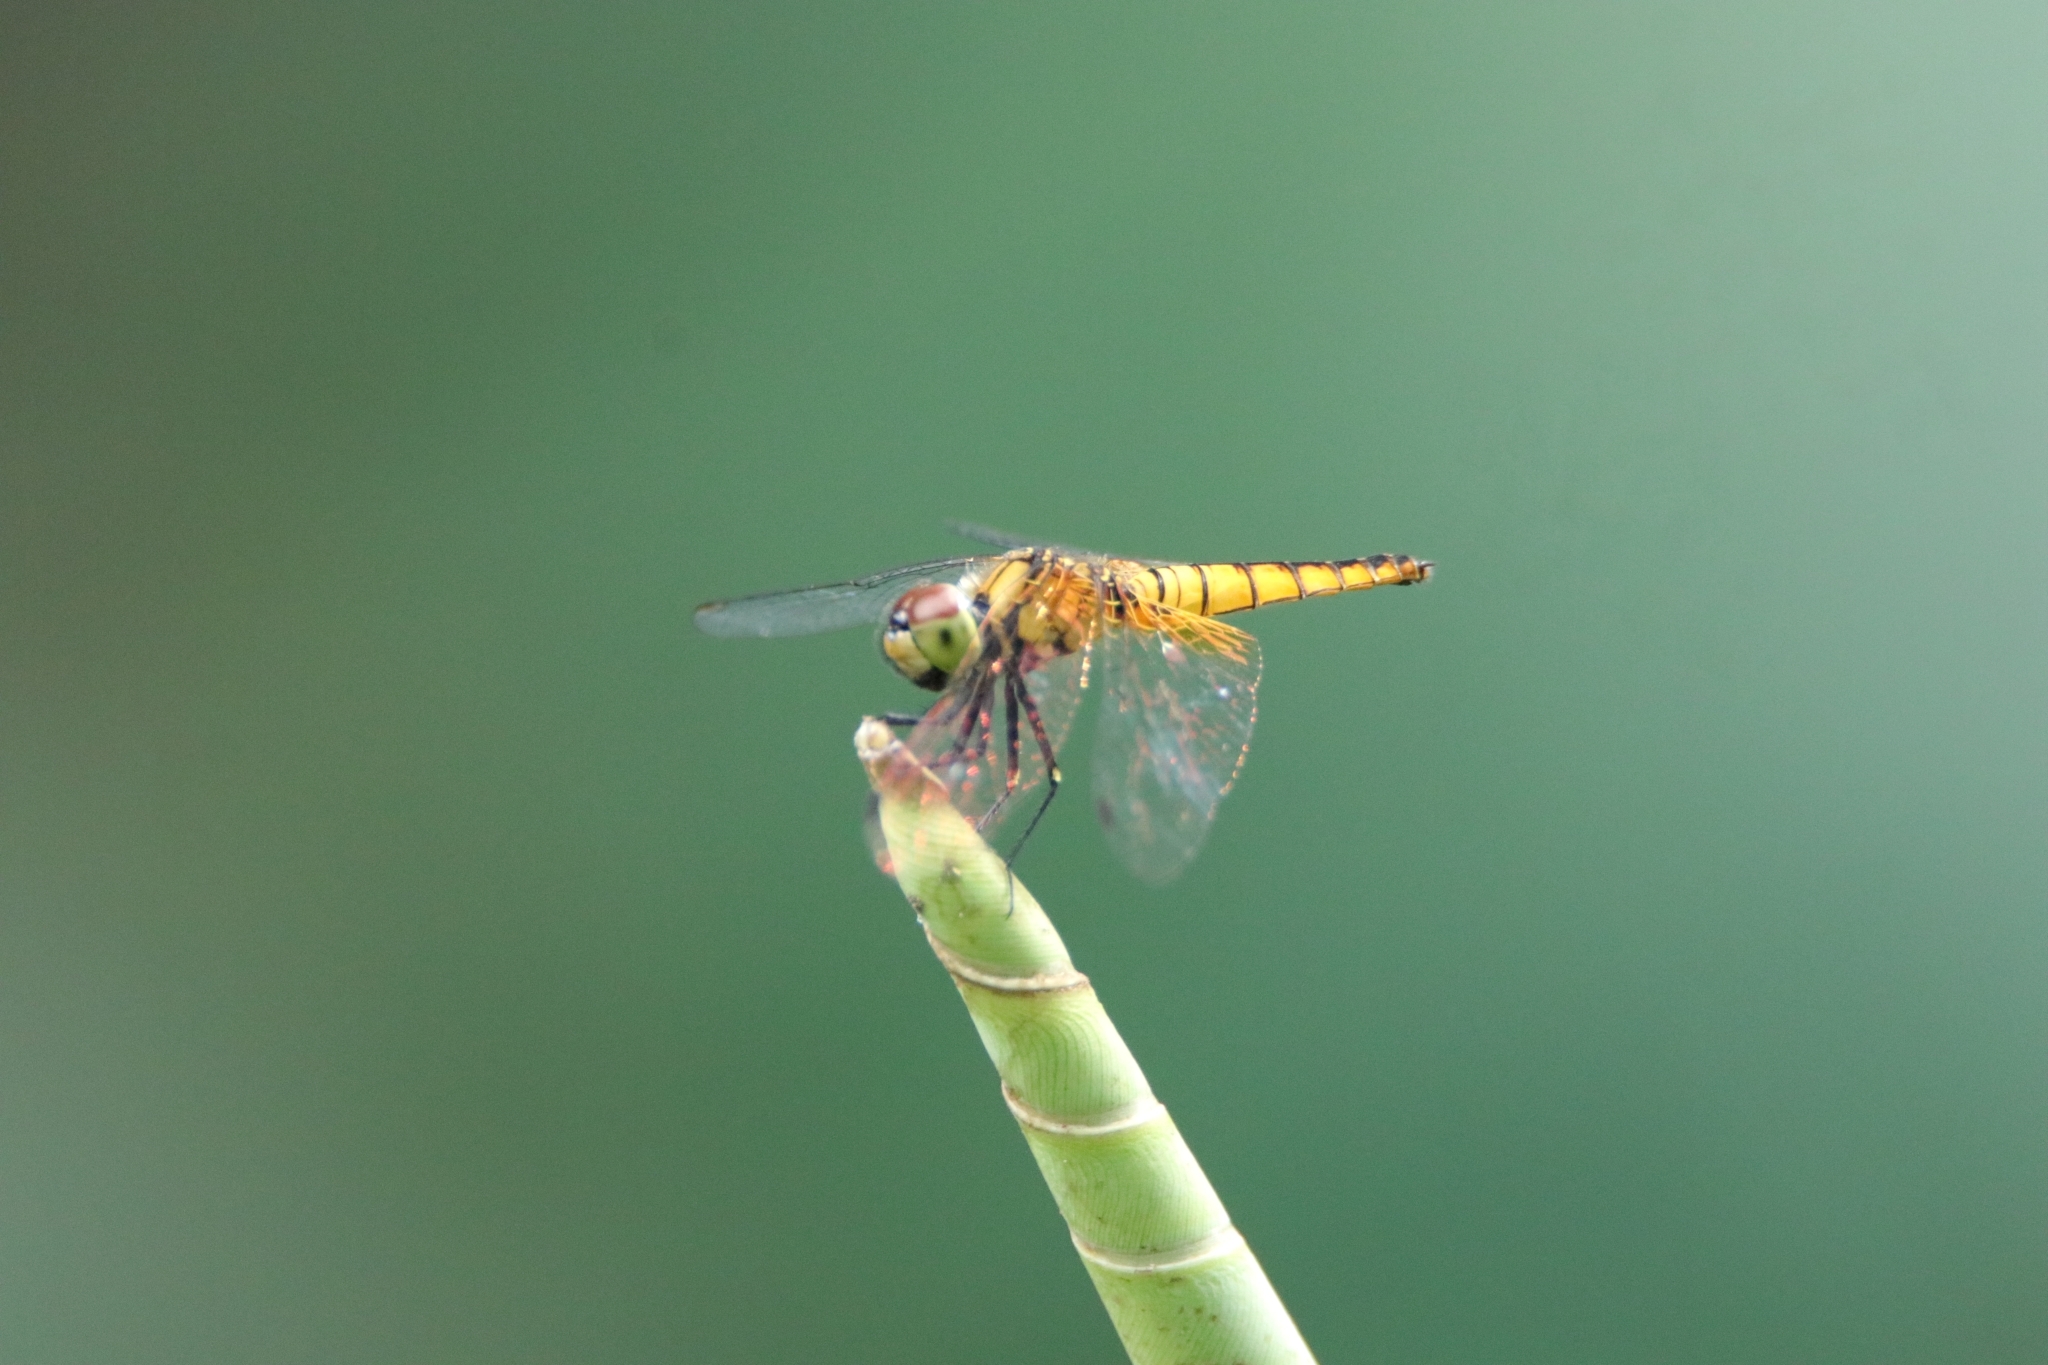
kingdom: Animalia
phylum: Arthropoda
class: Insecta
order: Odonata
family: Libellulidae
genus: Aethriamanta
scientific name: Aethriamanta brevipennis
